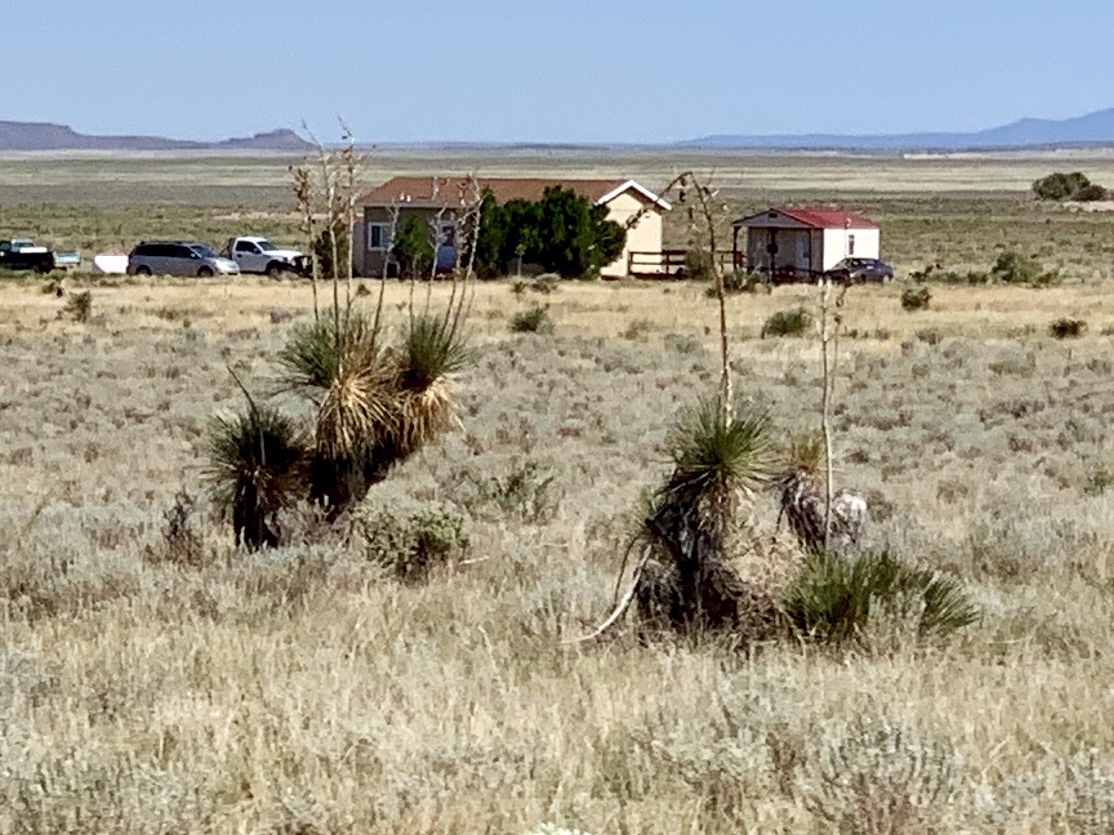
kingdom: Plantae
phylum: Tracheophyta
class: Liliopsida
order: Asparagales
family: Asparagaceae
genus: Yucca
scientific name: Yucca elata
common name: Palmella
